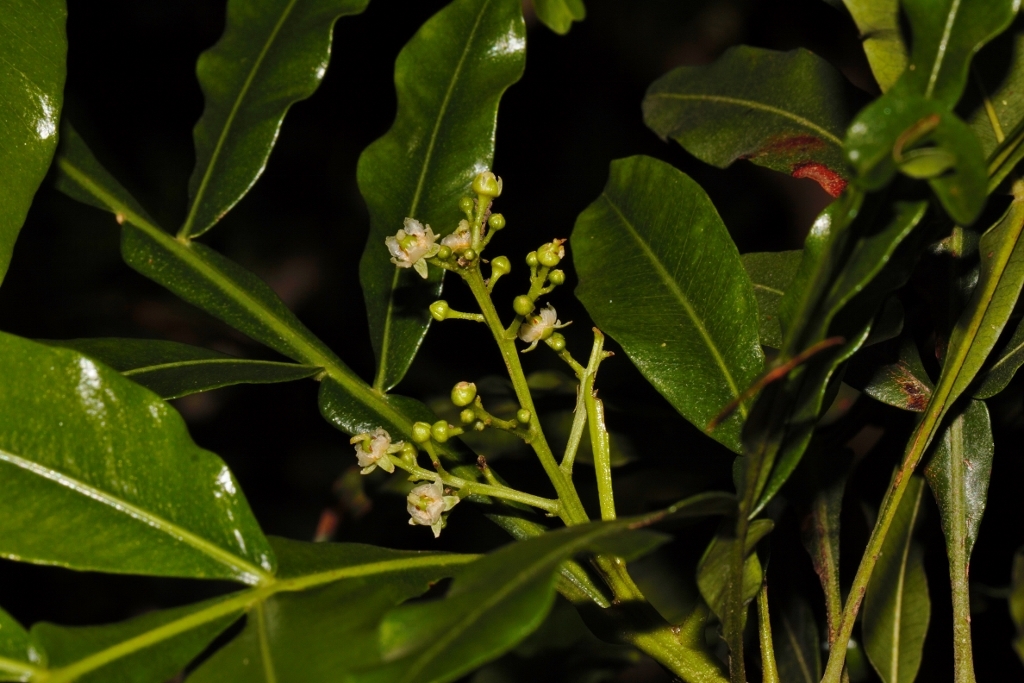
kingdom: Plantae
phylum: Tracheophyta
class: Magnoliopsida
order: Sapindales
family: Sapindaceae
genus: Filicium
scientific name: Filicium decipiens
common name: Ferntree
